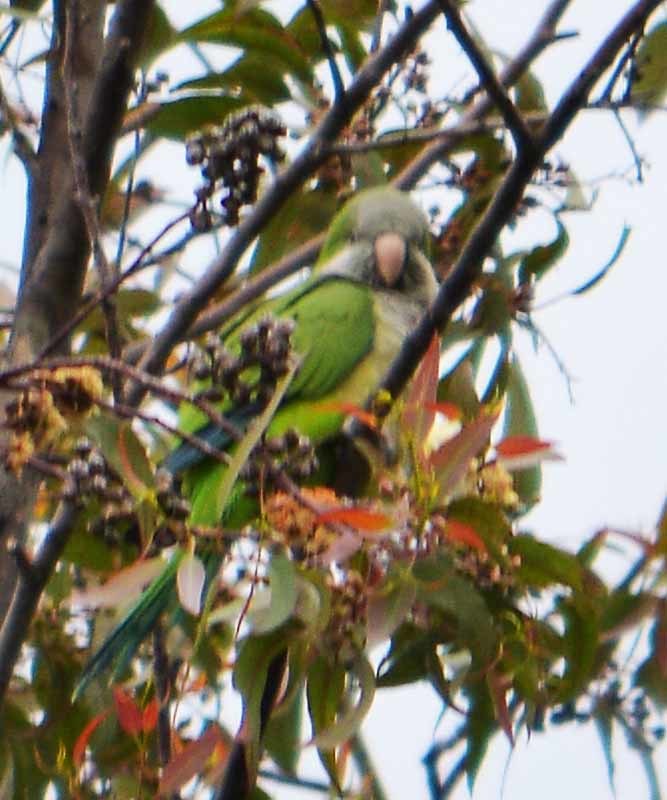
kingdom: Animalia
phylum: Chordata
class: Aves
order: Psittaciformes
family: Psittacidae
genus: Myiopsitta
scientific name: Myiopsitta monachus
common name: Monk parakeet
